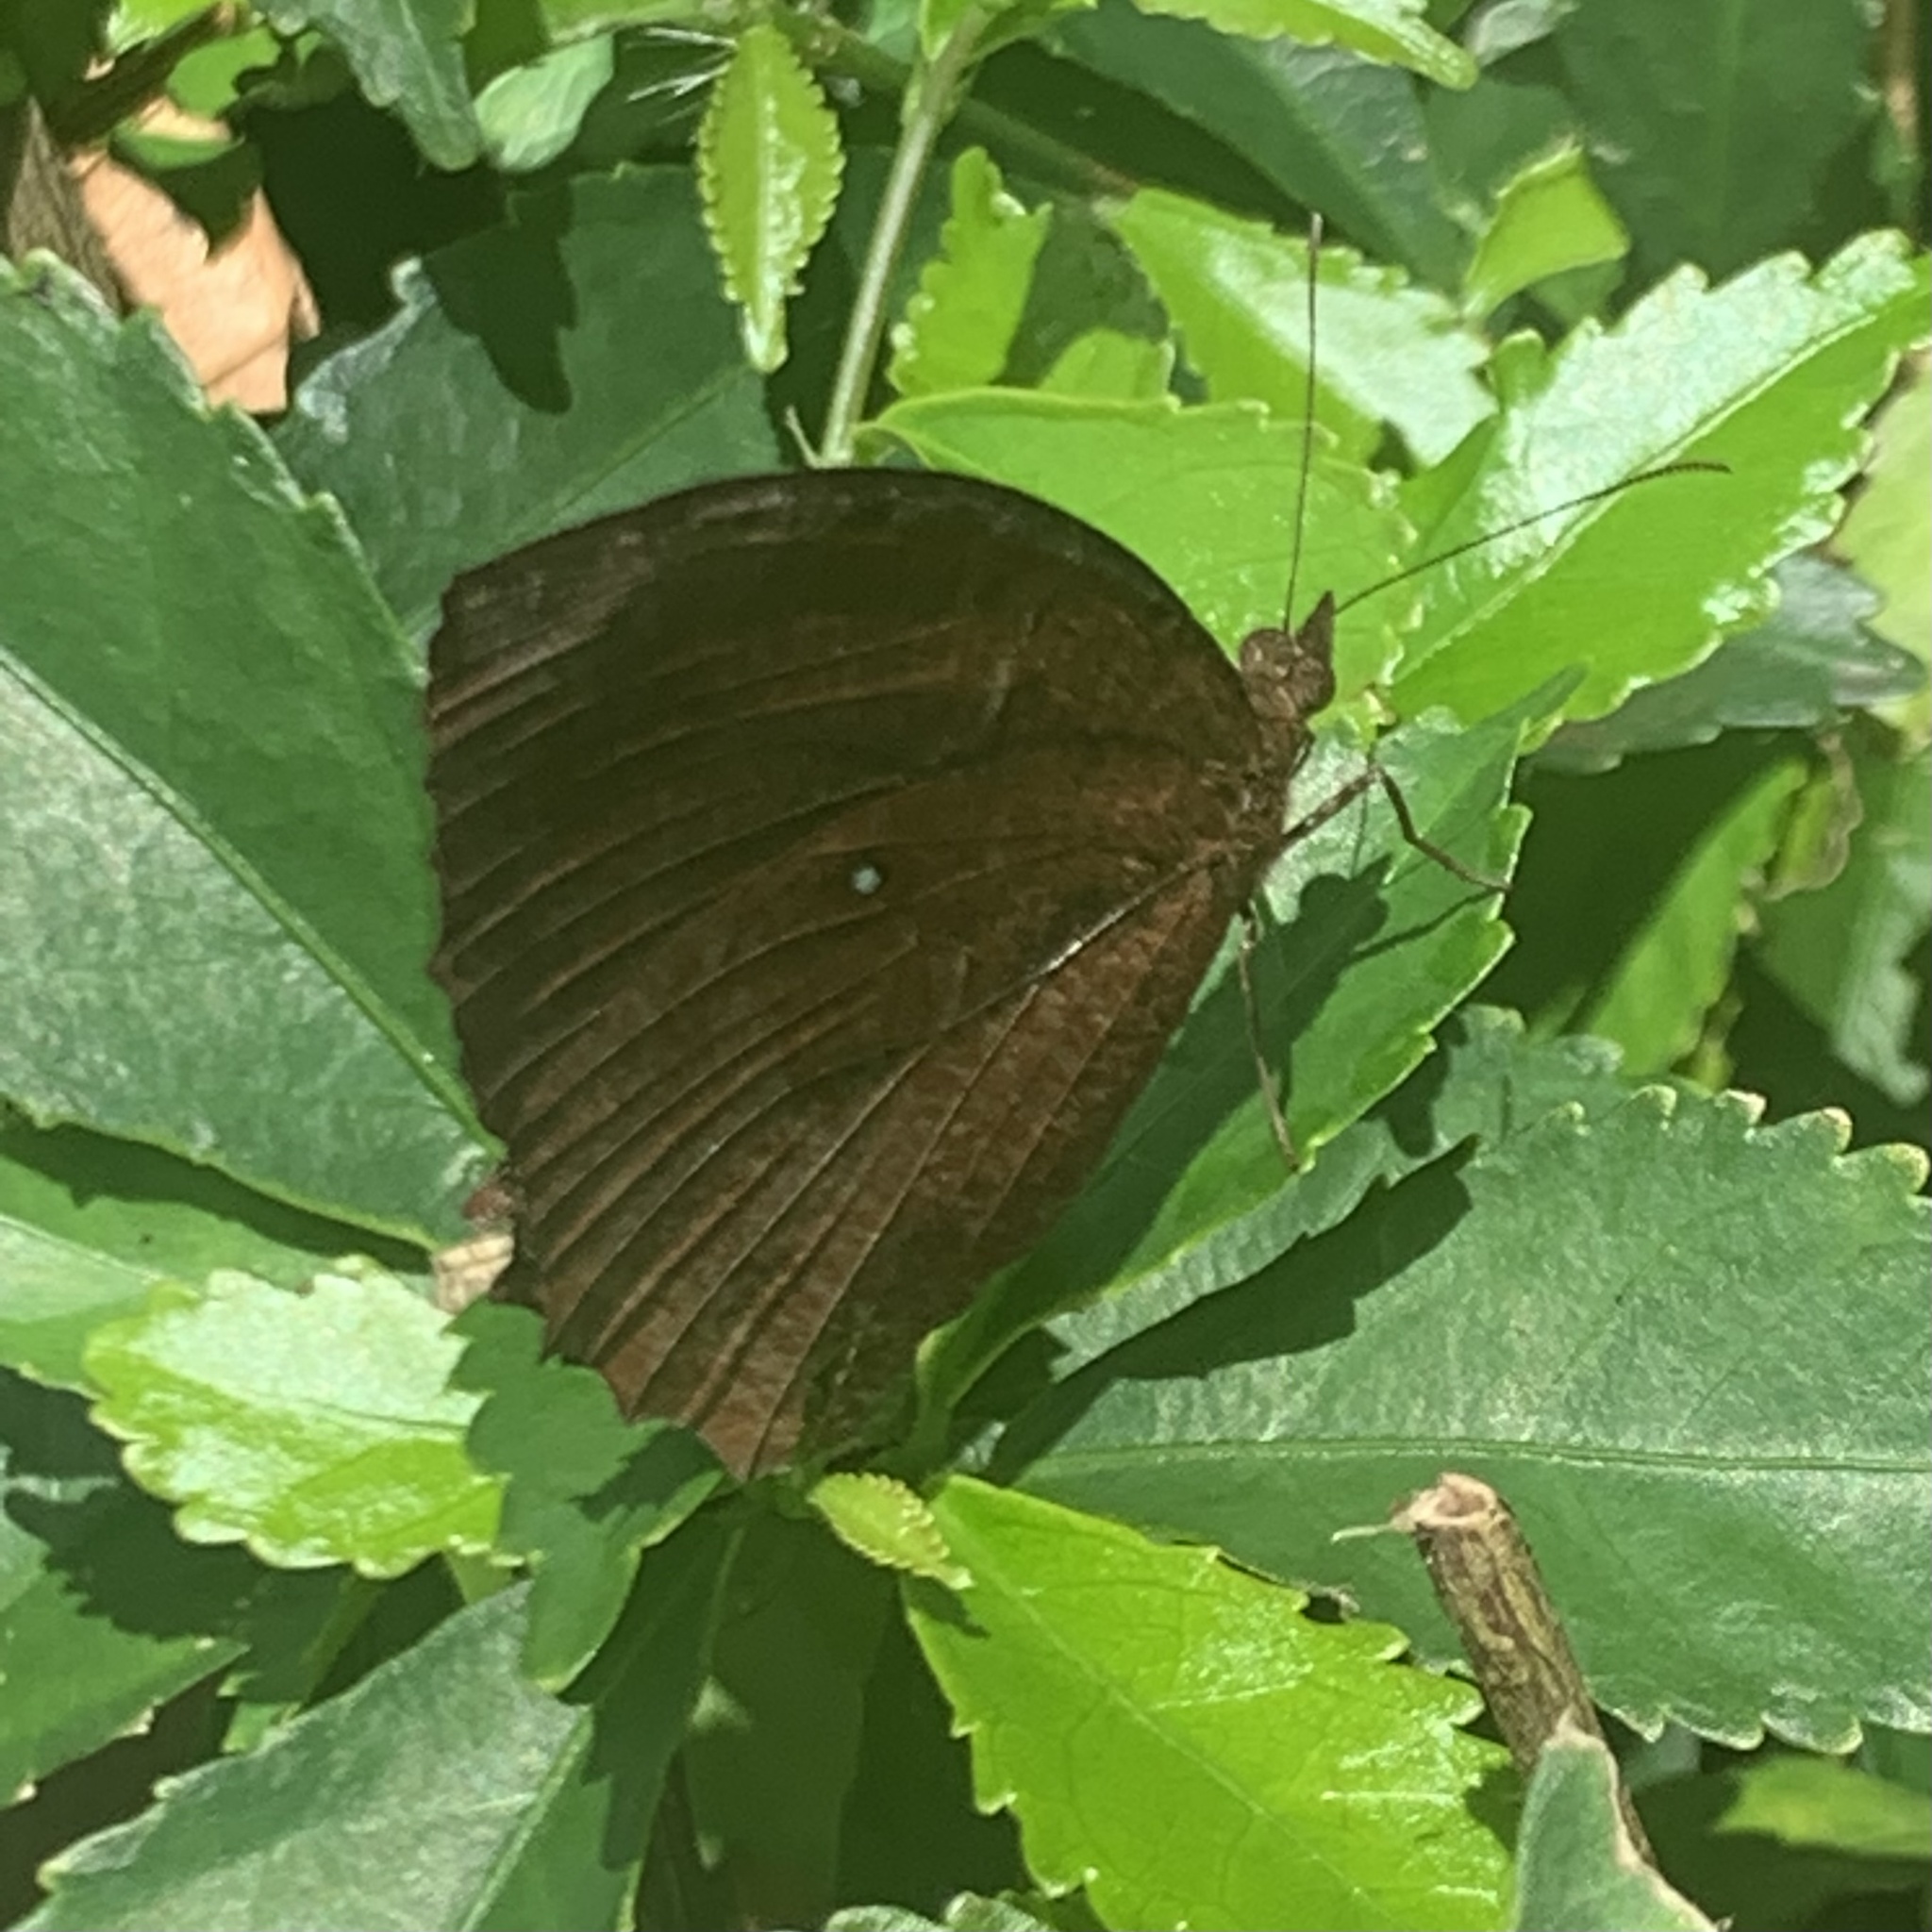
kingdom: Animalia
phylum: Arthropoda
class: Insecta
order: Lepidoptera
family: Nymphalidae
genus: Elymnias
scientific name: Elymnias hypermnestra
